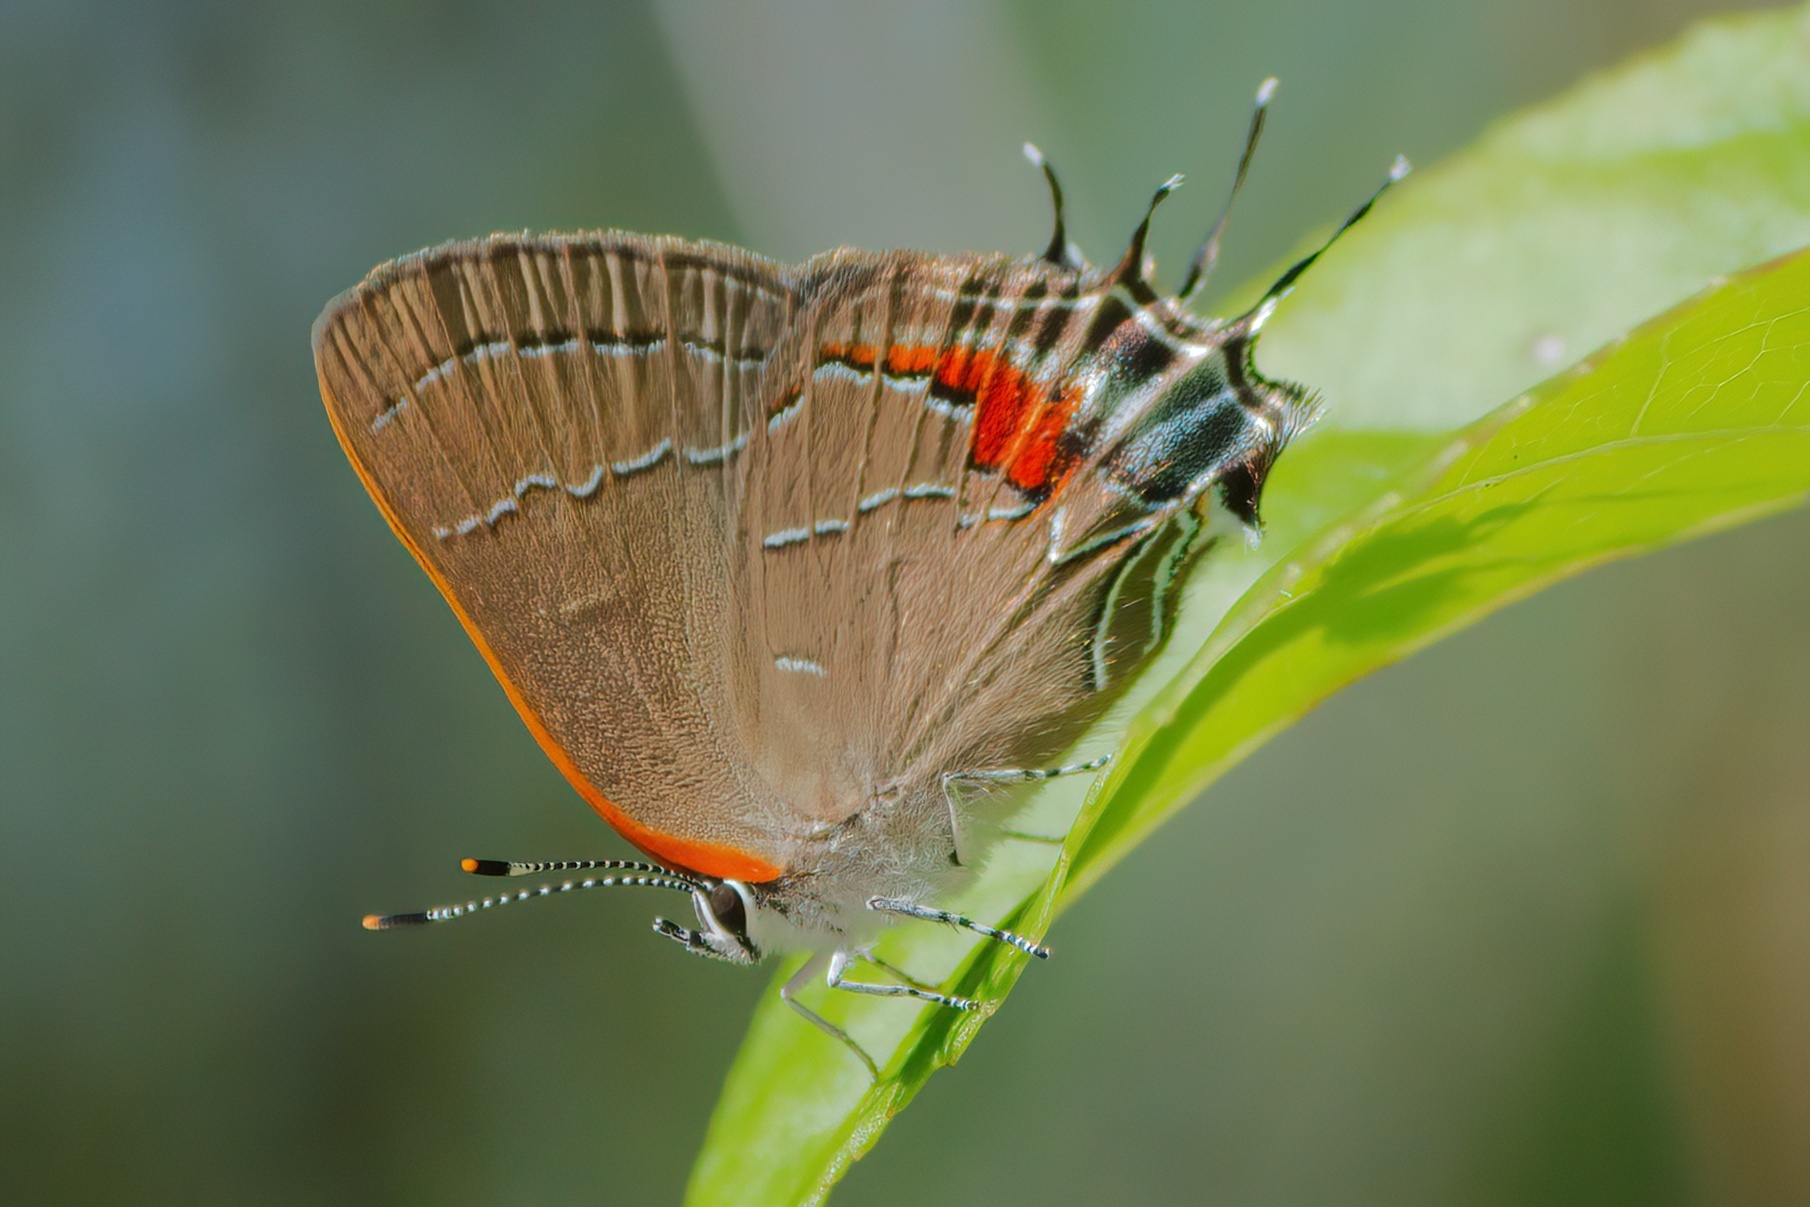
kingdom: Animalia
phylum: Arthropoda
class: Insecta
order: Lepidoptera
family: Lycaenidae
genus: Fixsenia
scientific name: Fixsenia favonius
